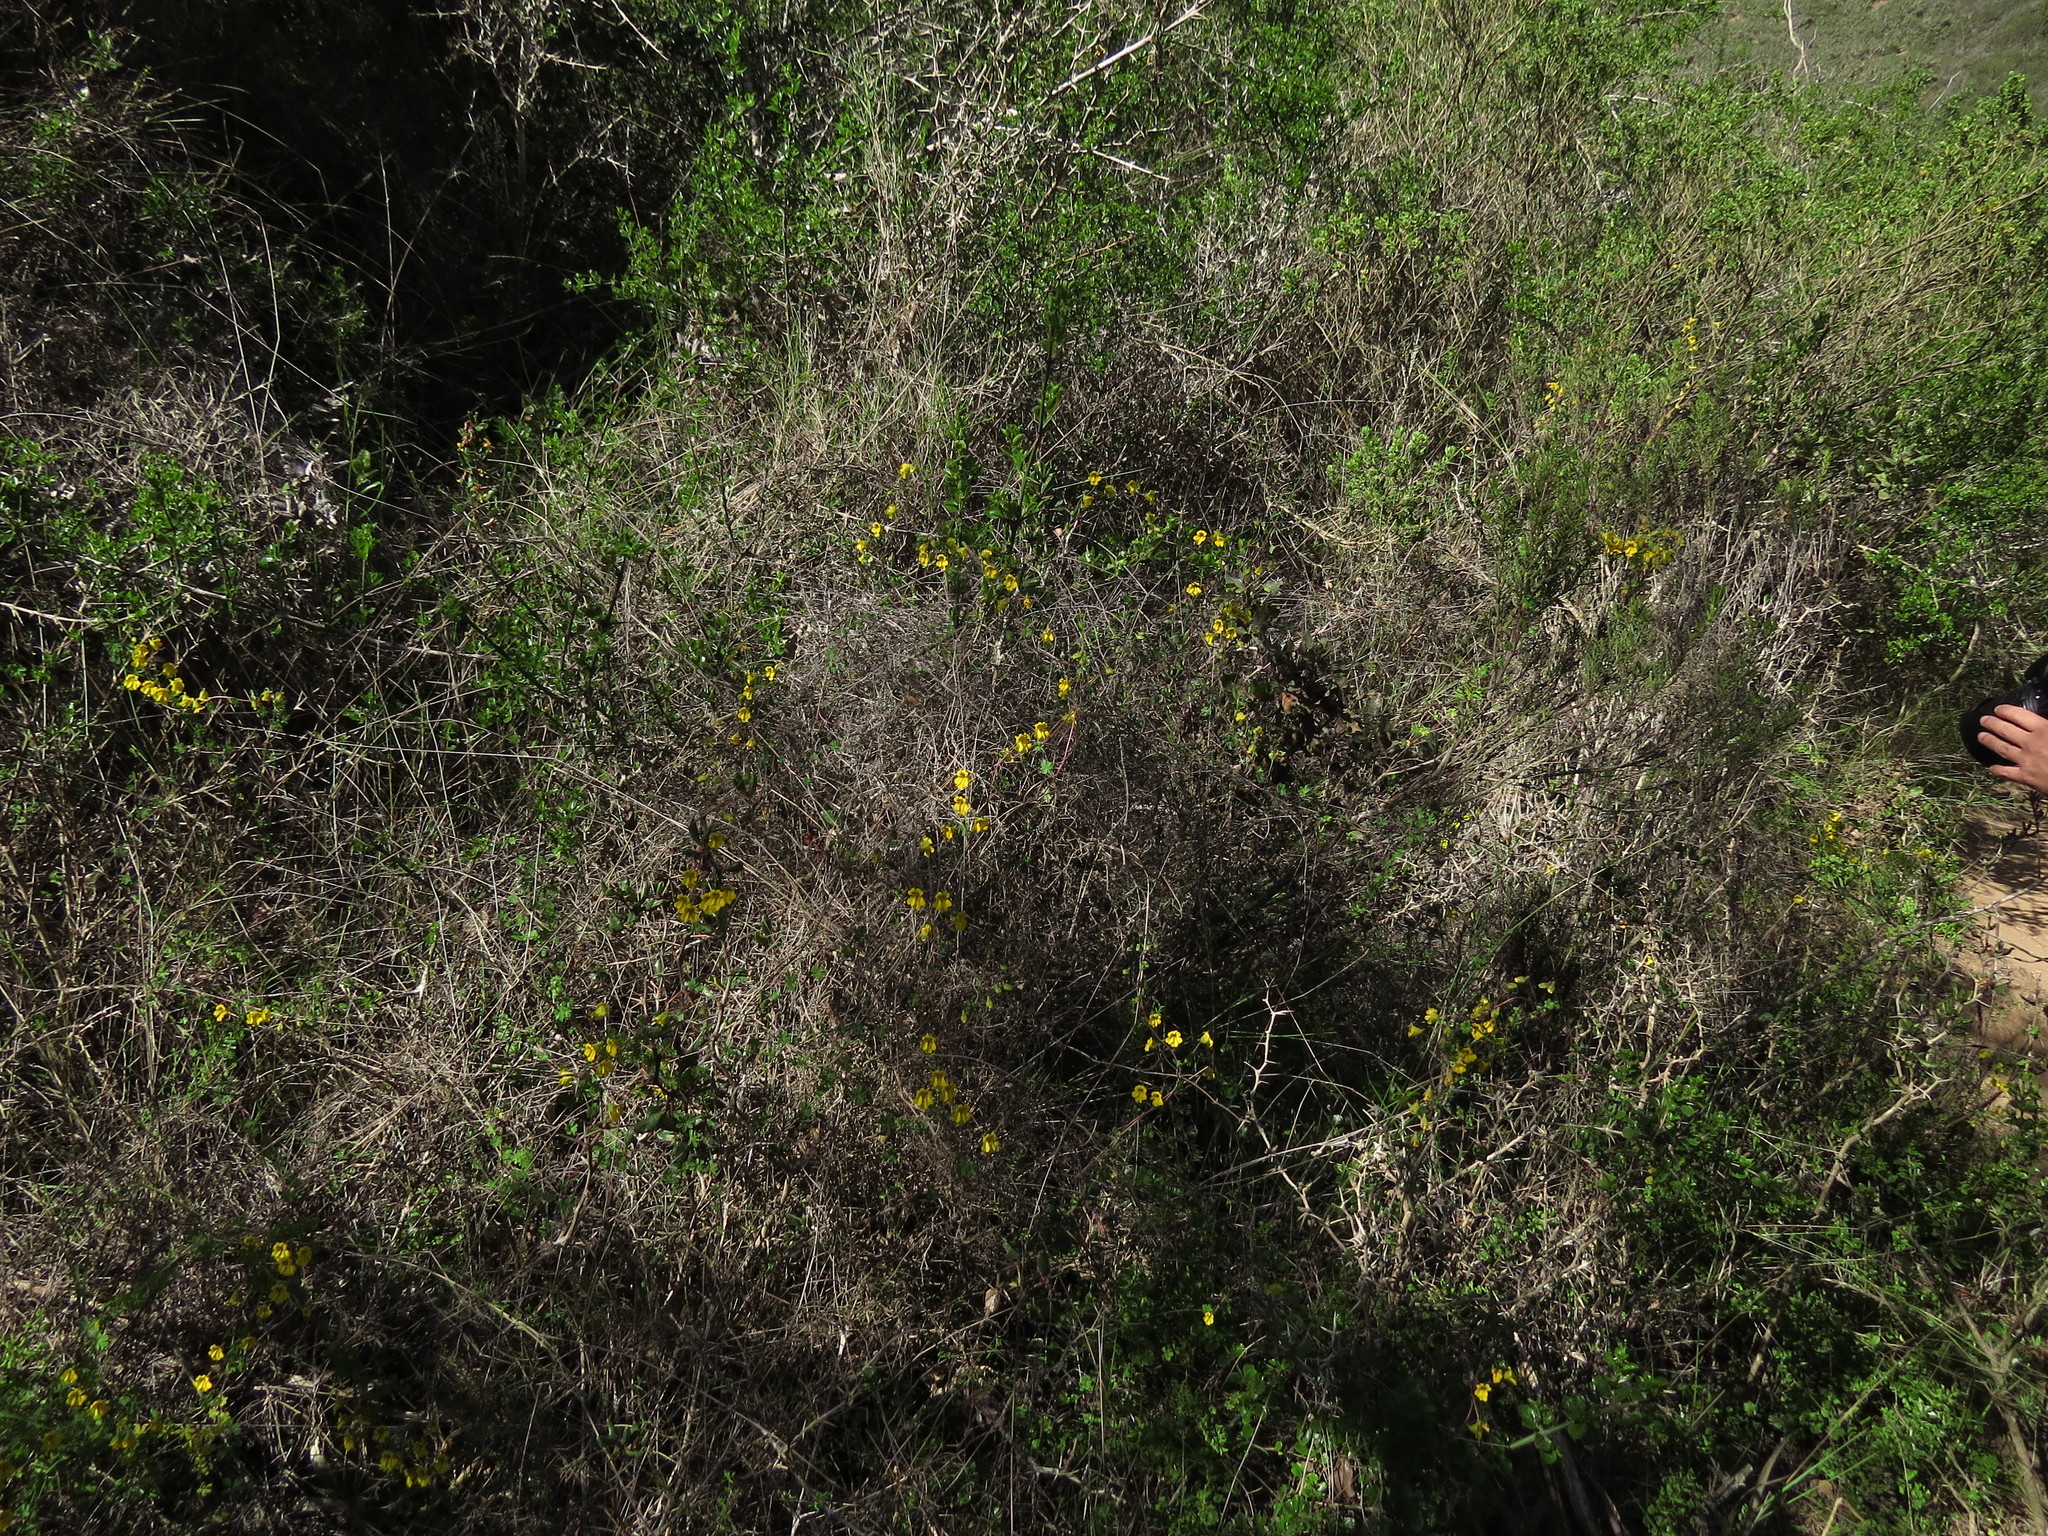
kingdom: Plantae
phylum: Tracheophyta
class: Magnoliopsida
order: Brassicales
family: Tropaeolaceae
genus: Tropaeolum
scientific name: Tropaeolum hookerianum
